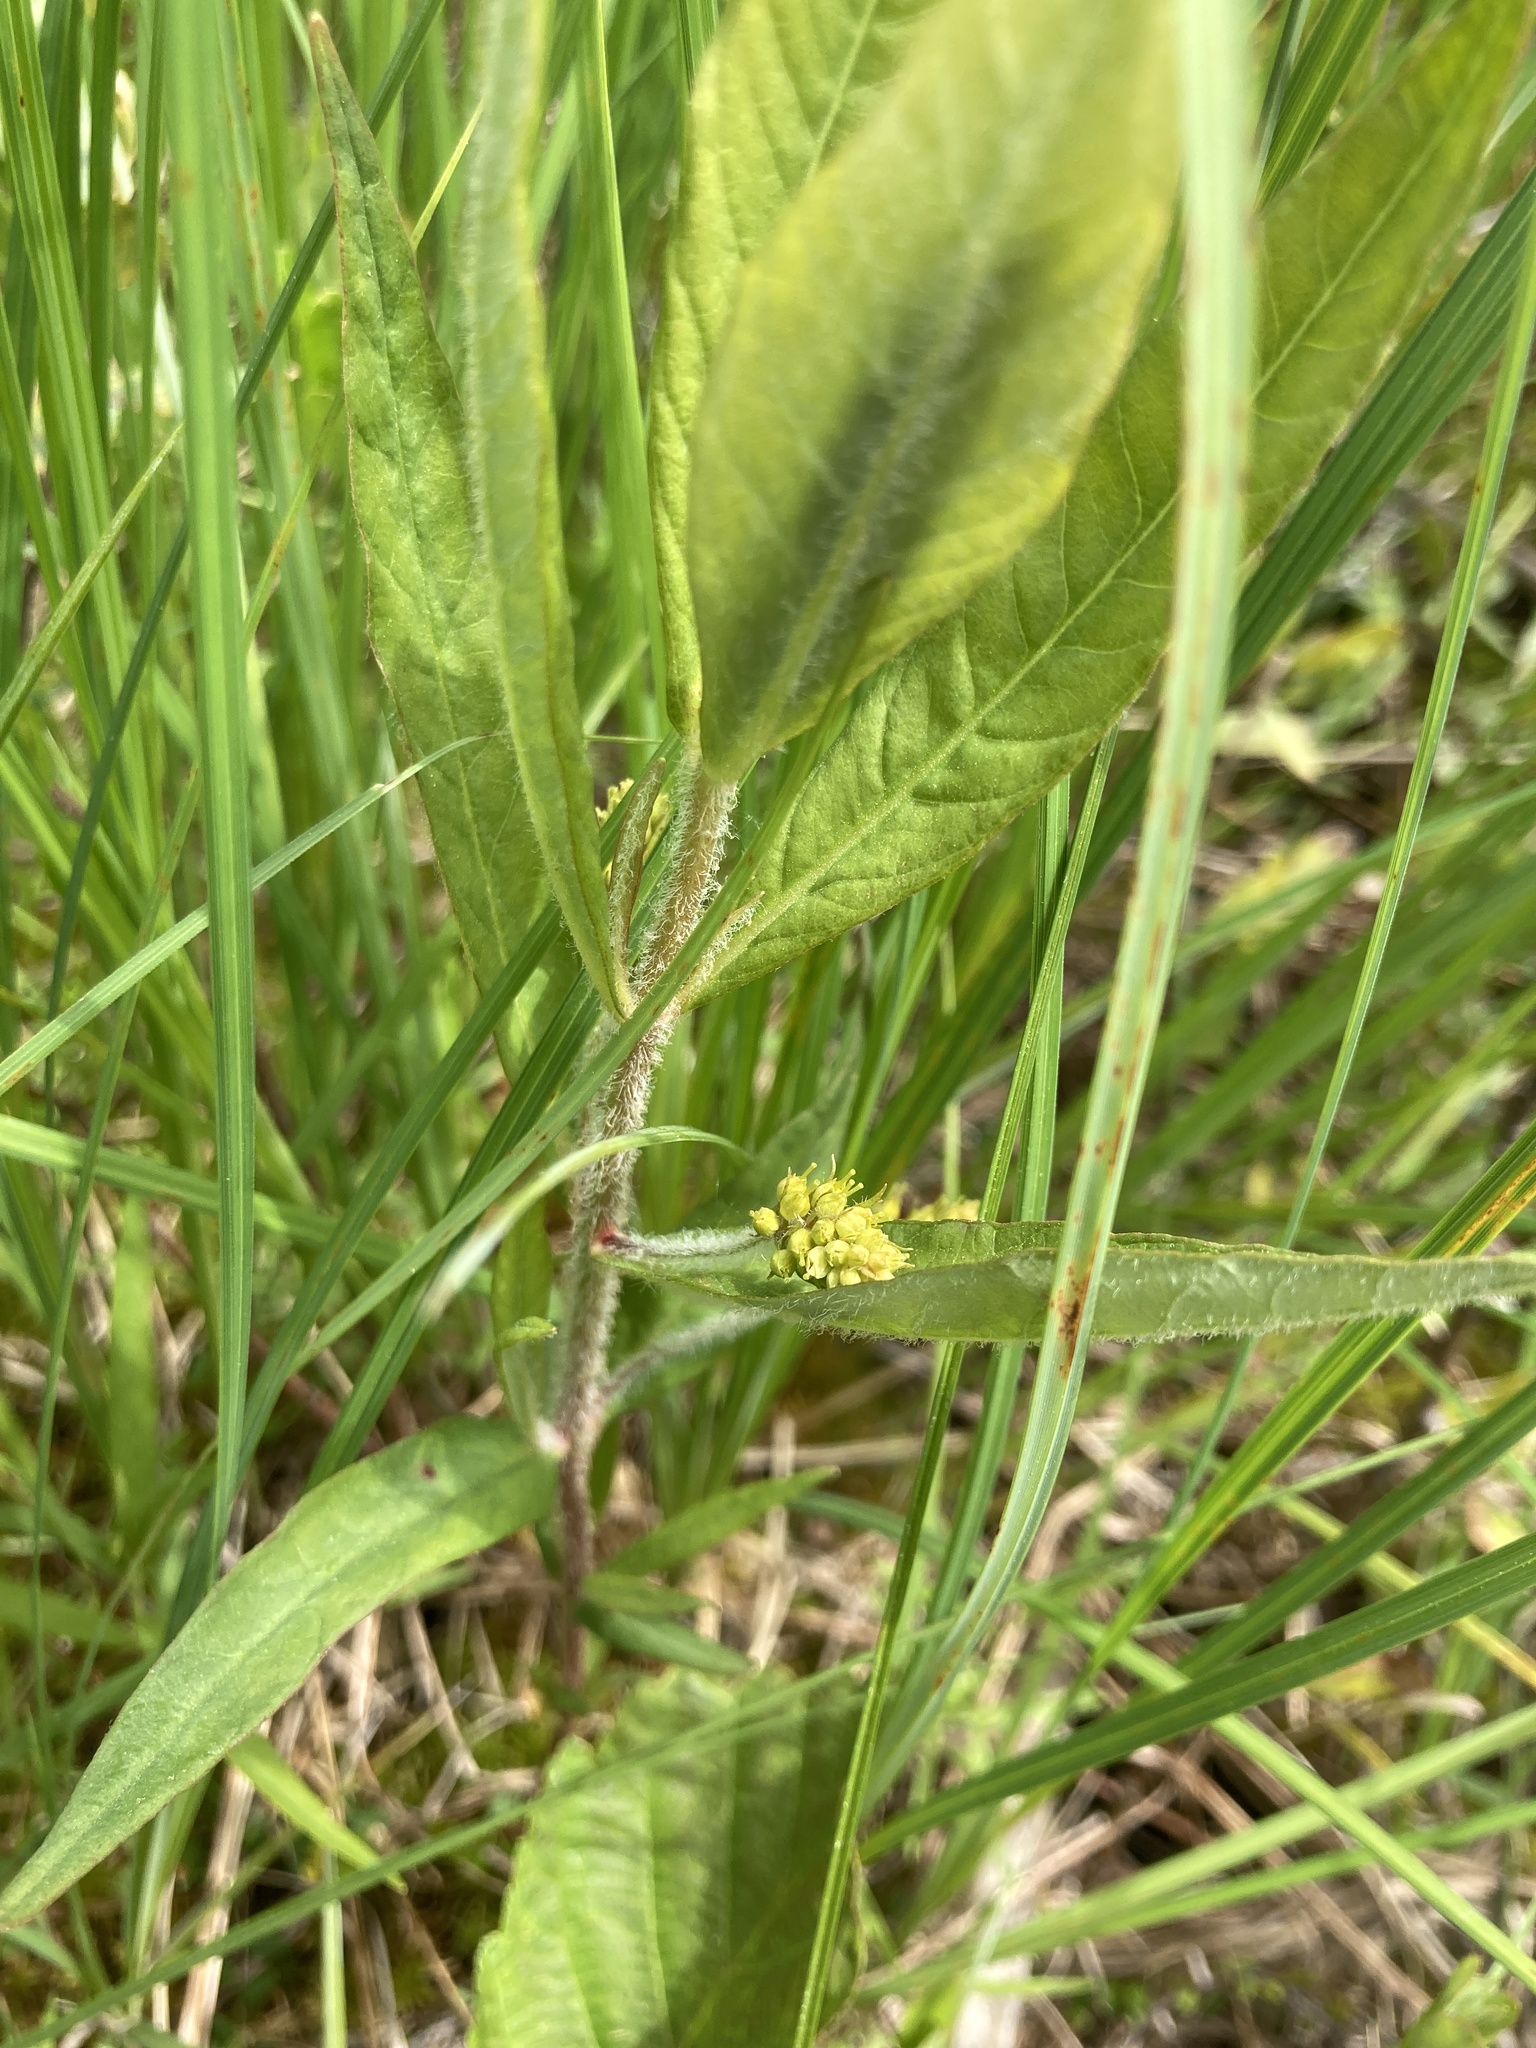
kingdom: Plantae
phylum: Tracheophyta
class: Magnoliopsida
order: Ericales
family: Primulaceae
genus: Lysimachia
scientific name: Lysimachia thyrsiflora
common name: Tufted loosestrife
